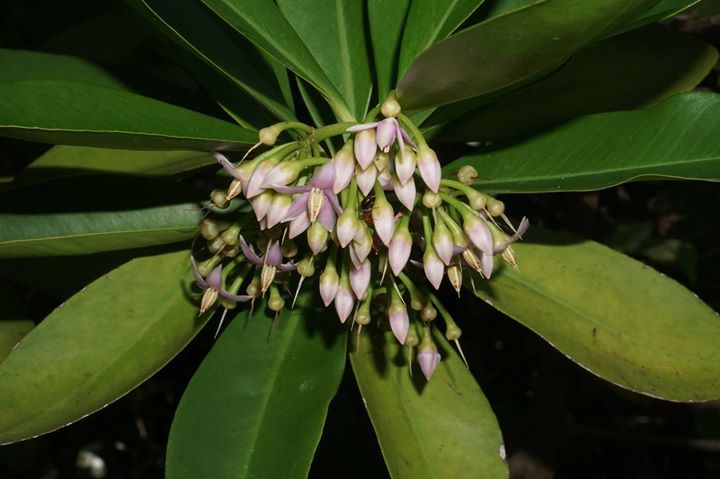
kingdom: Plantae
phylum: Tracheophyta
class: Magnoliopsida
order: Ericales
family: Primulaceae
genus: Ardisia
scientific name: Ardisia elliptica
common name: Shoebutton
